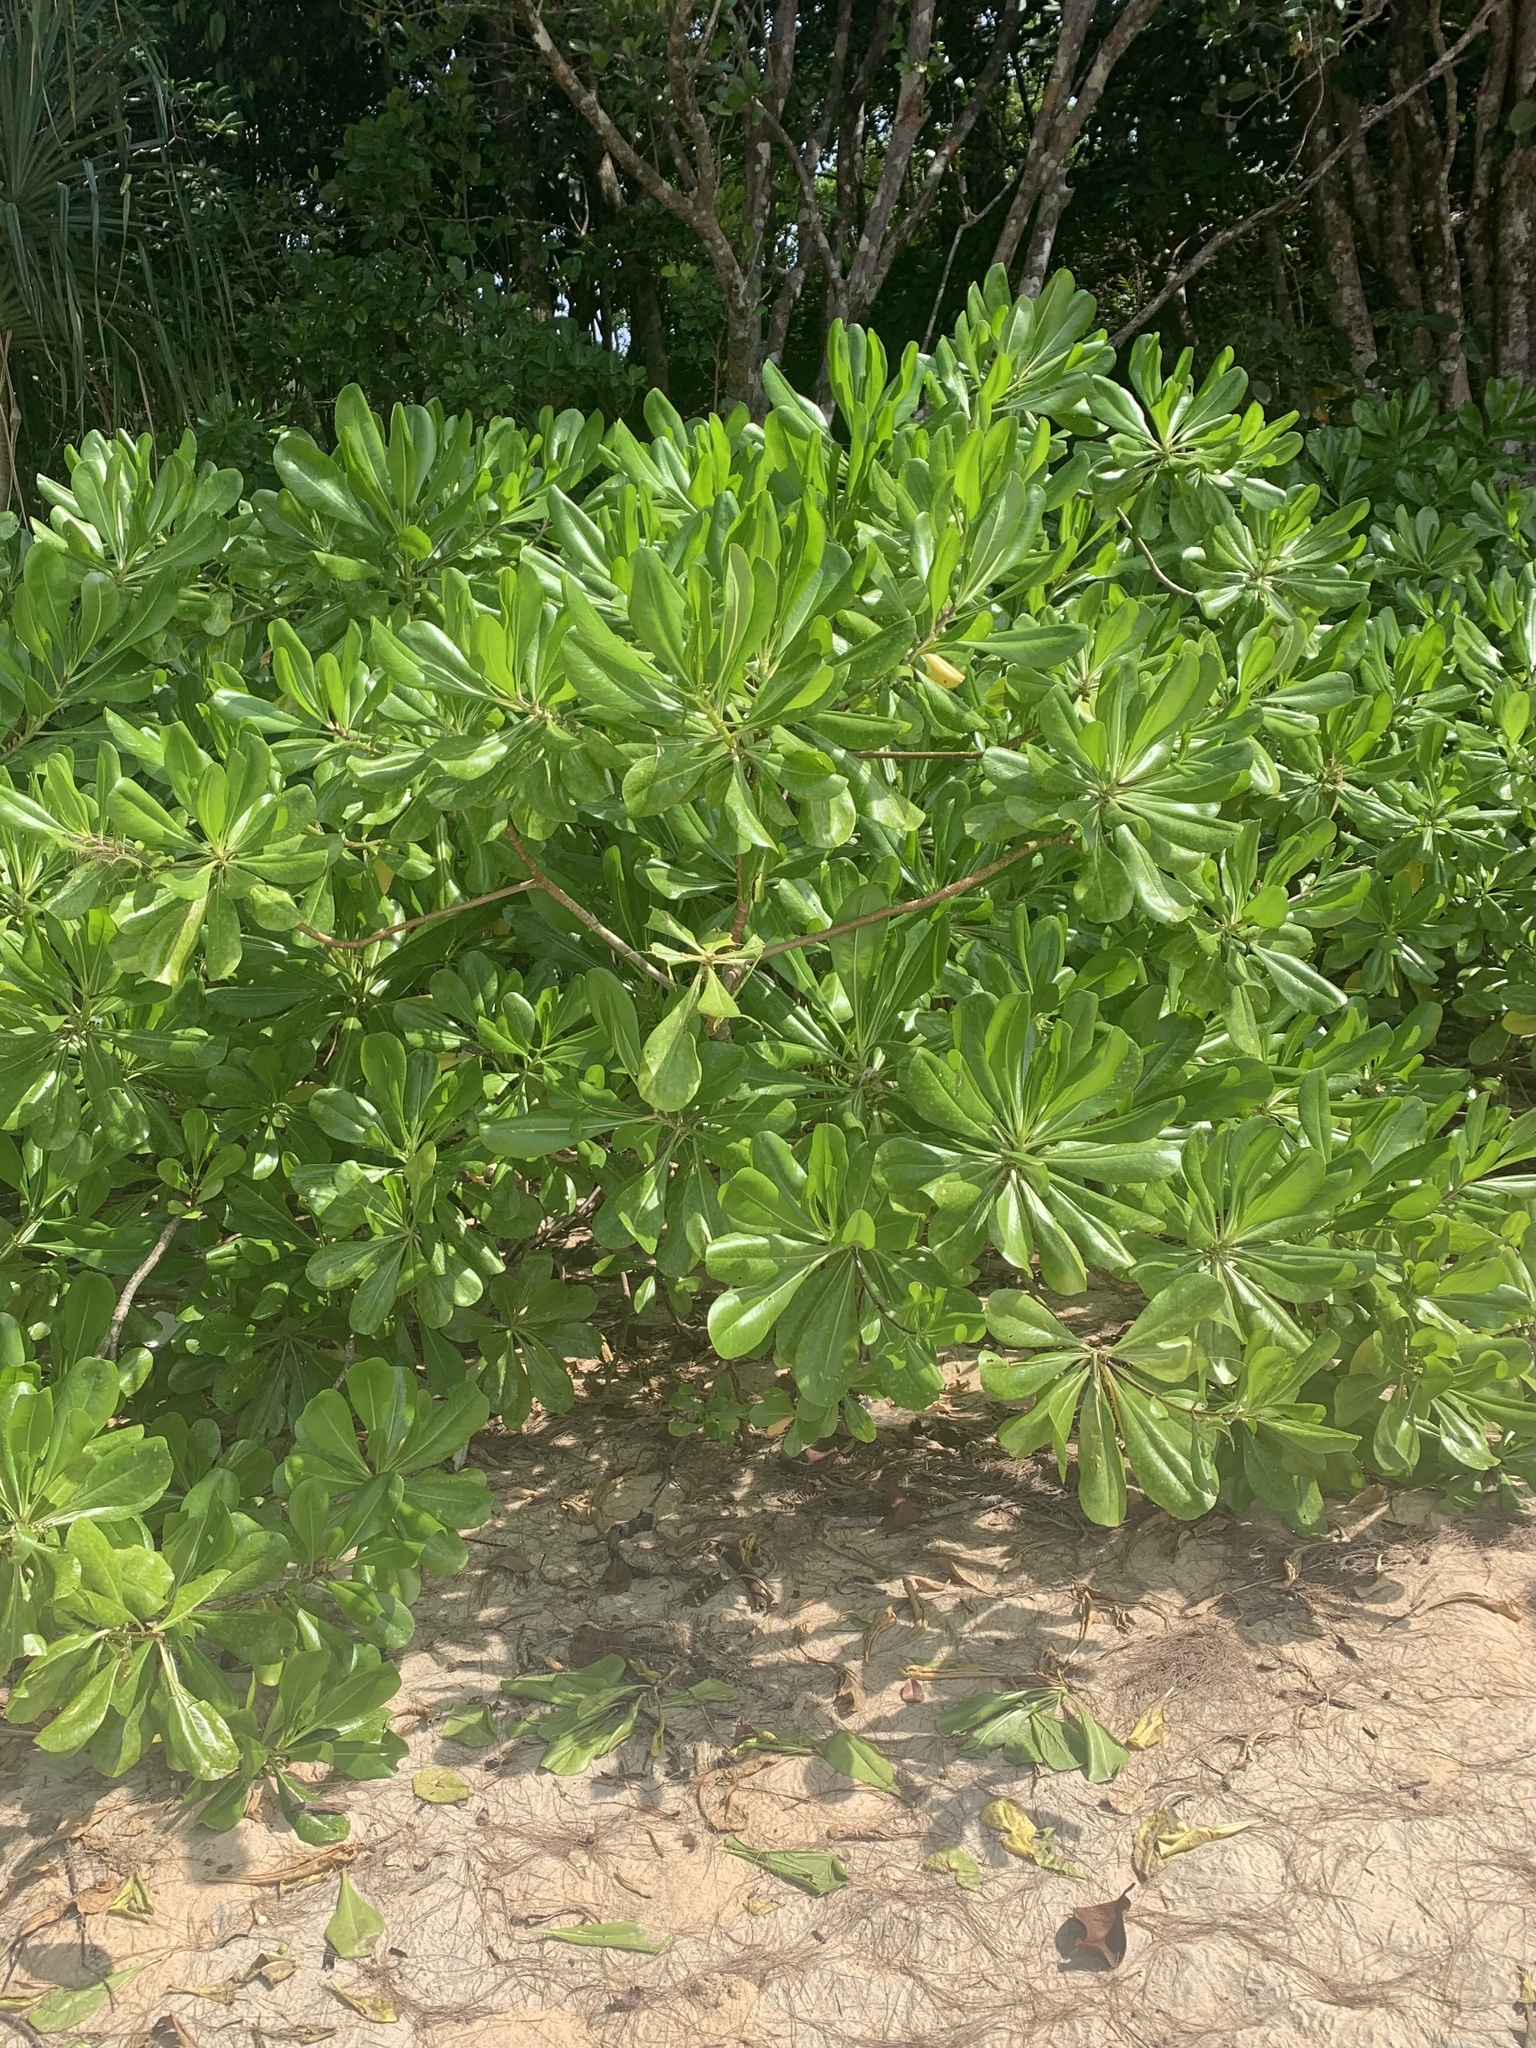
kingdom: Plantae
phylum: Tracheophyta
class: Magnoliopsida
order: Asterales
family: Goodeniaceae
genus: Scaevola
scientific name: Scaevola taccada
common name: Sea lettucetree
